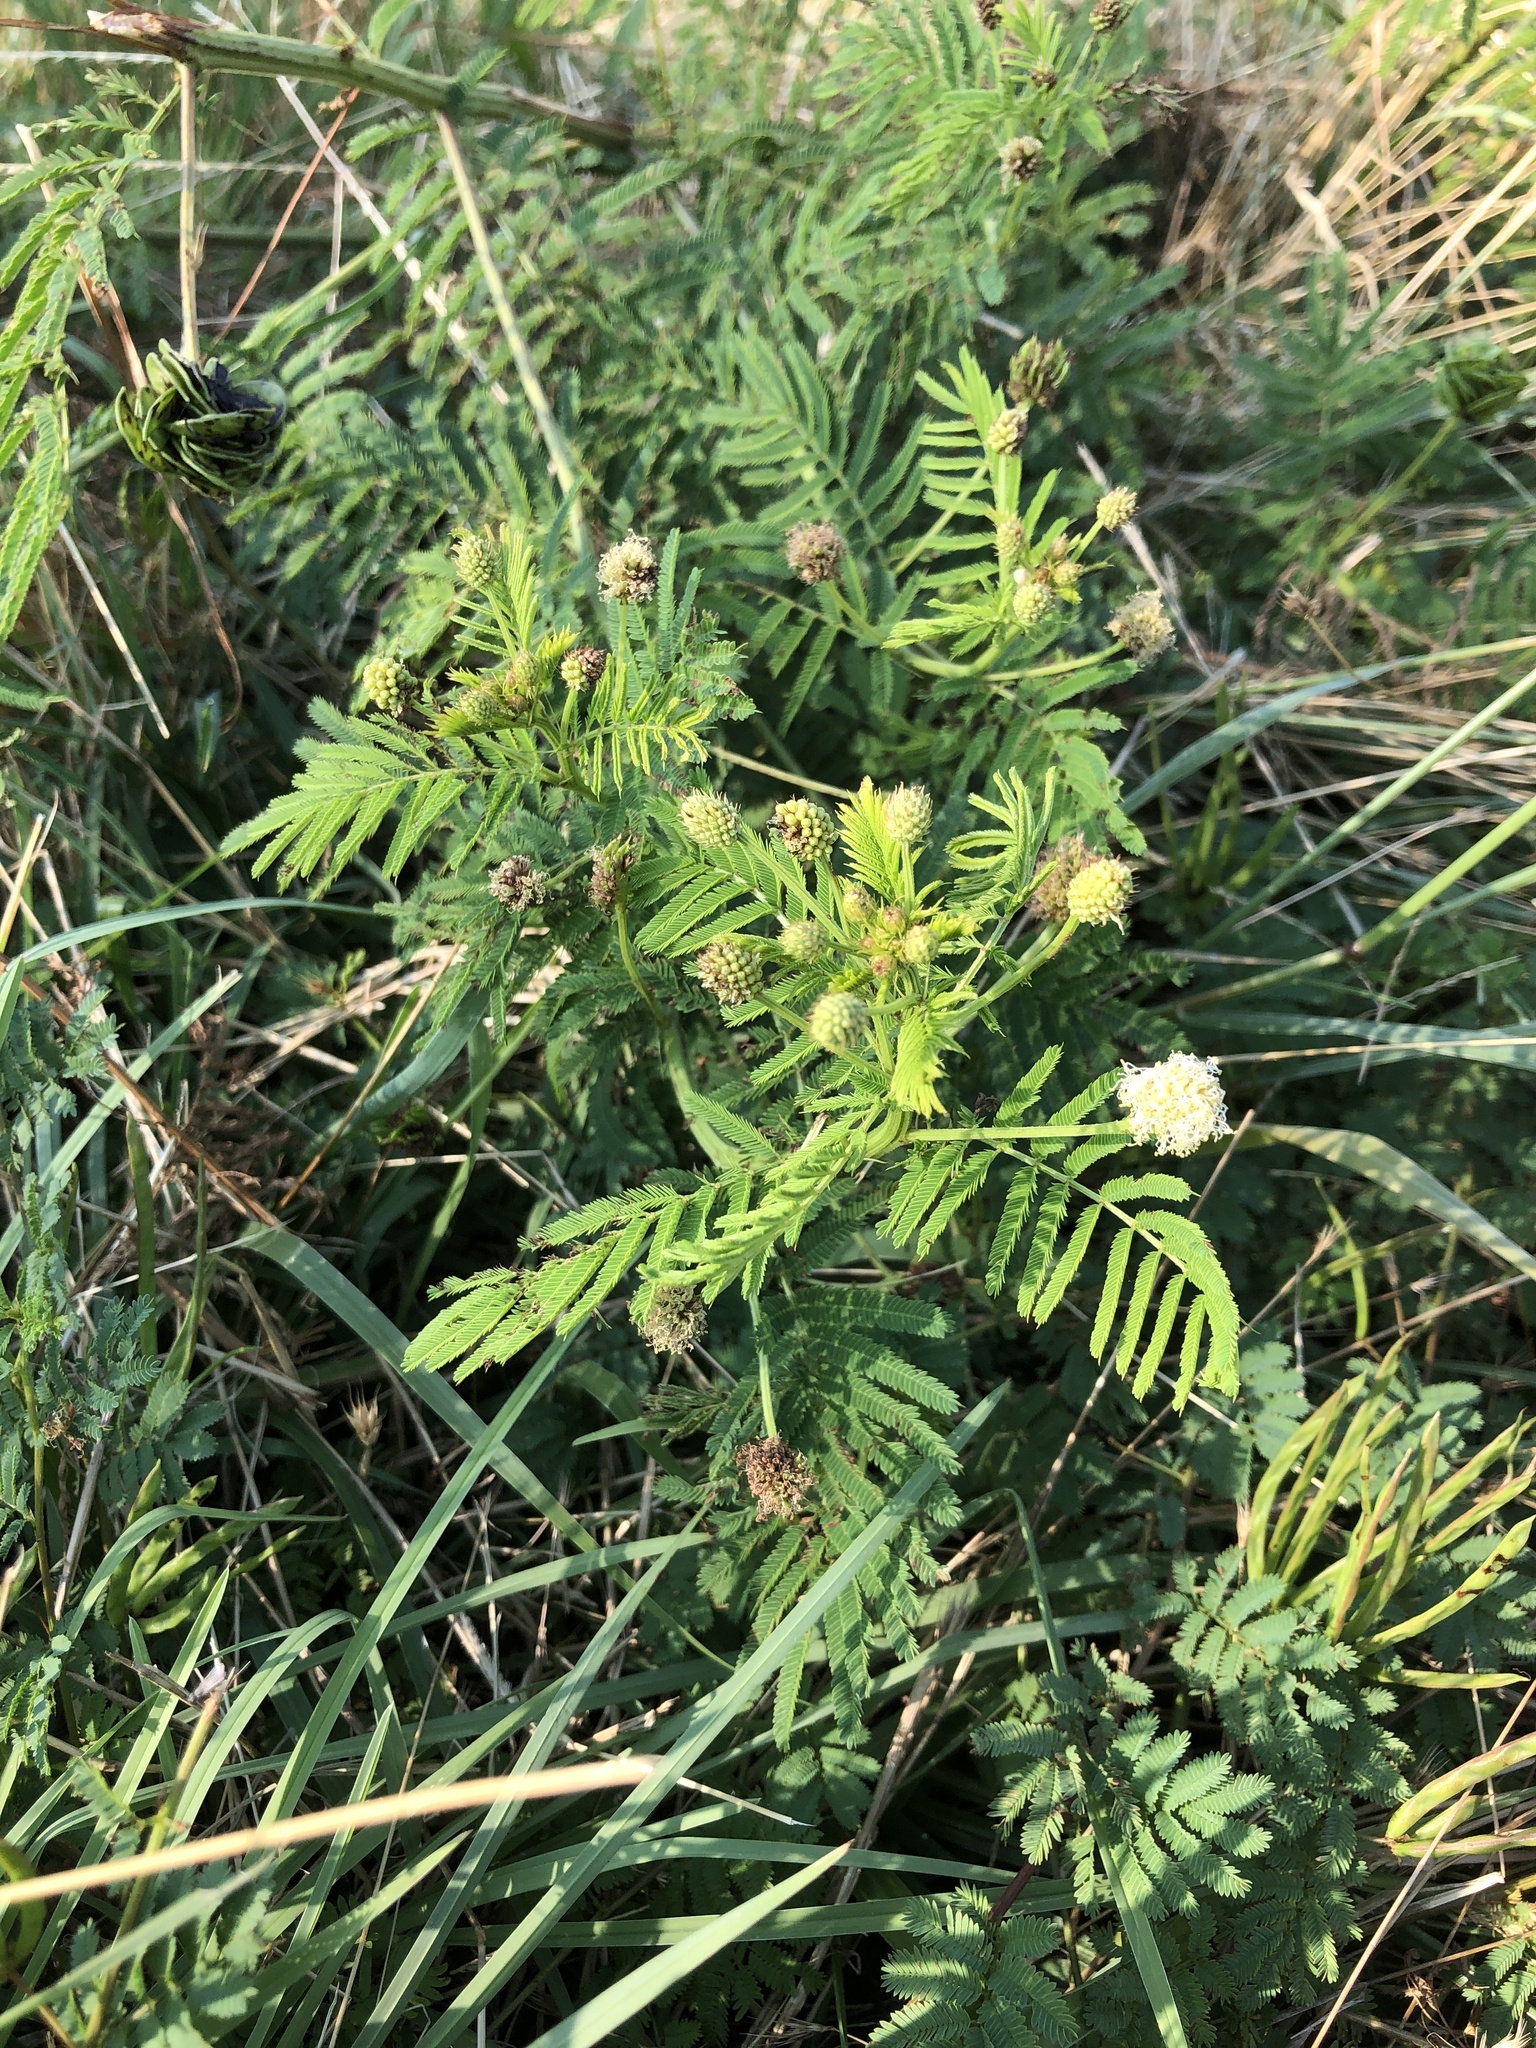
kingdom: Plantae
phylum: Tracheophyta
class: Magnoliopsida
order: Fabales
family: Fabaceae
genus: Desmanthus
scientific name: Desmanthus illinoensis
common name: Illinois bundle-flower
